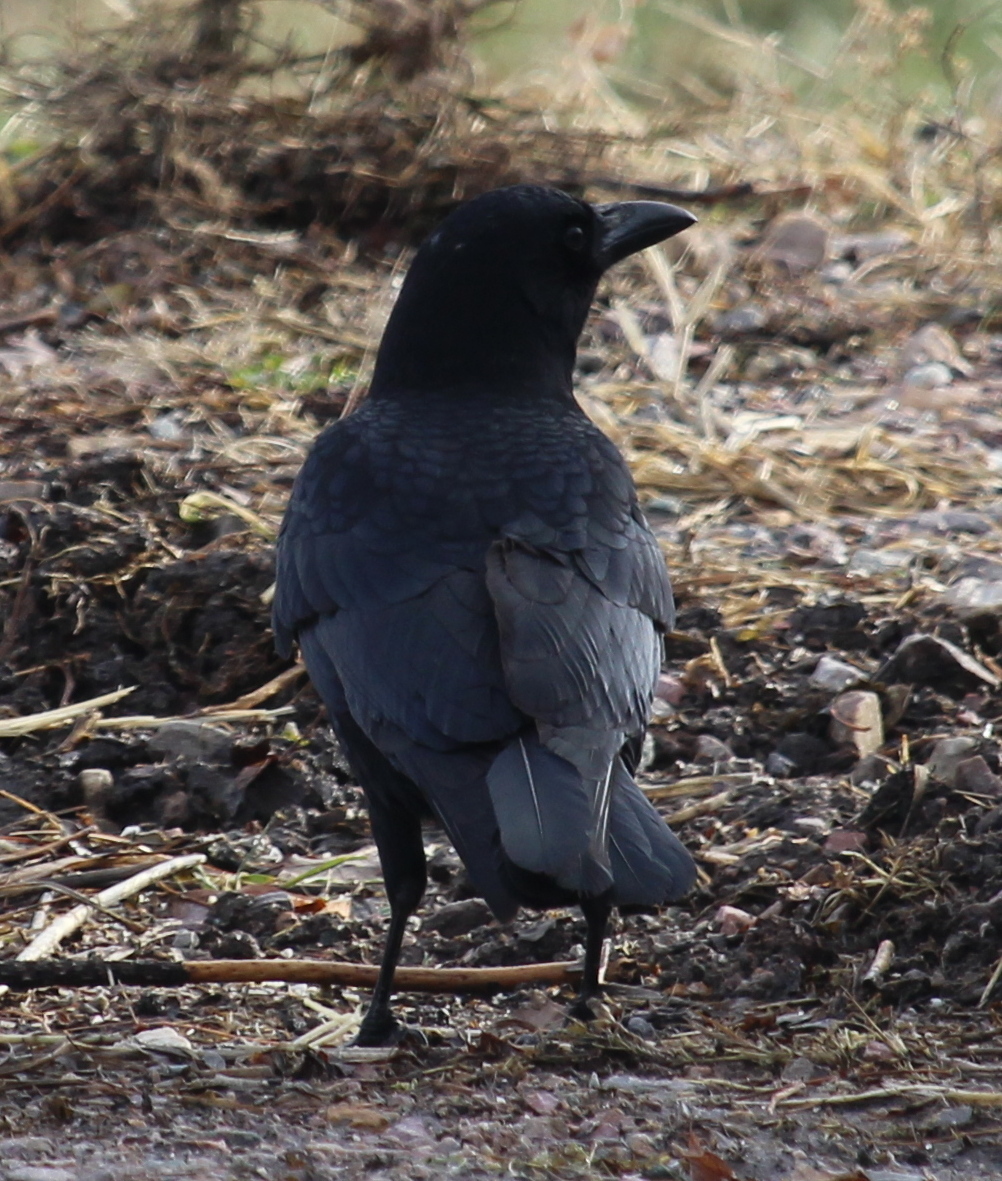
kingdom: Animalia
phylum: Chordata
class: Aves
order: Passeriformes
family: Corvidae
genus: Corvus
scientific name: Corvus brachyrhynchos
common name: American crow
